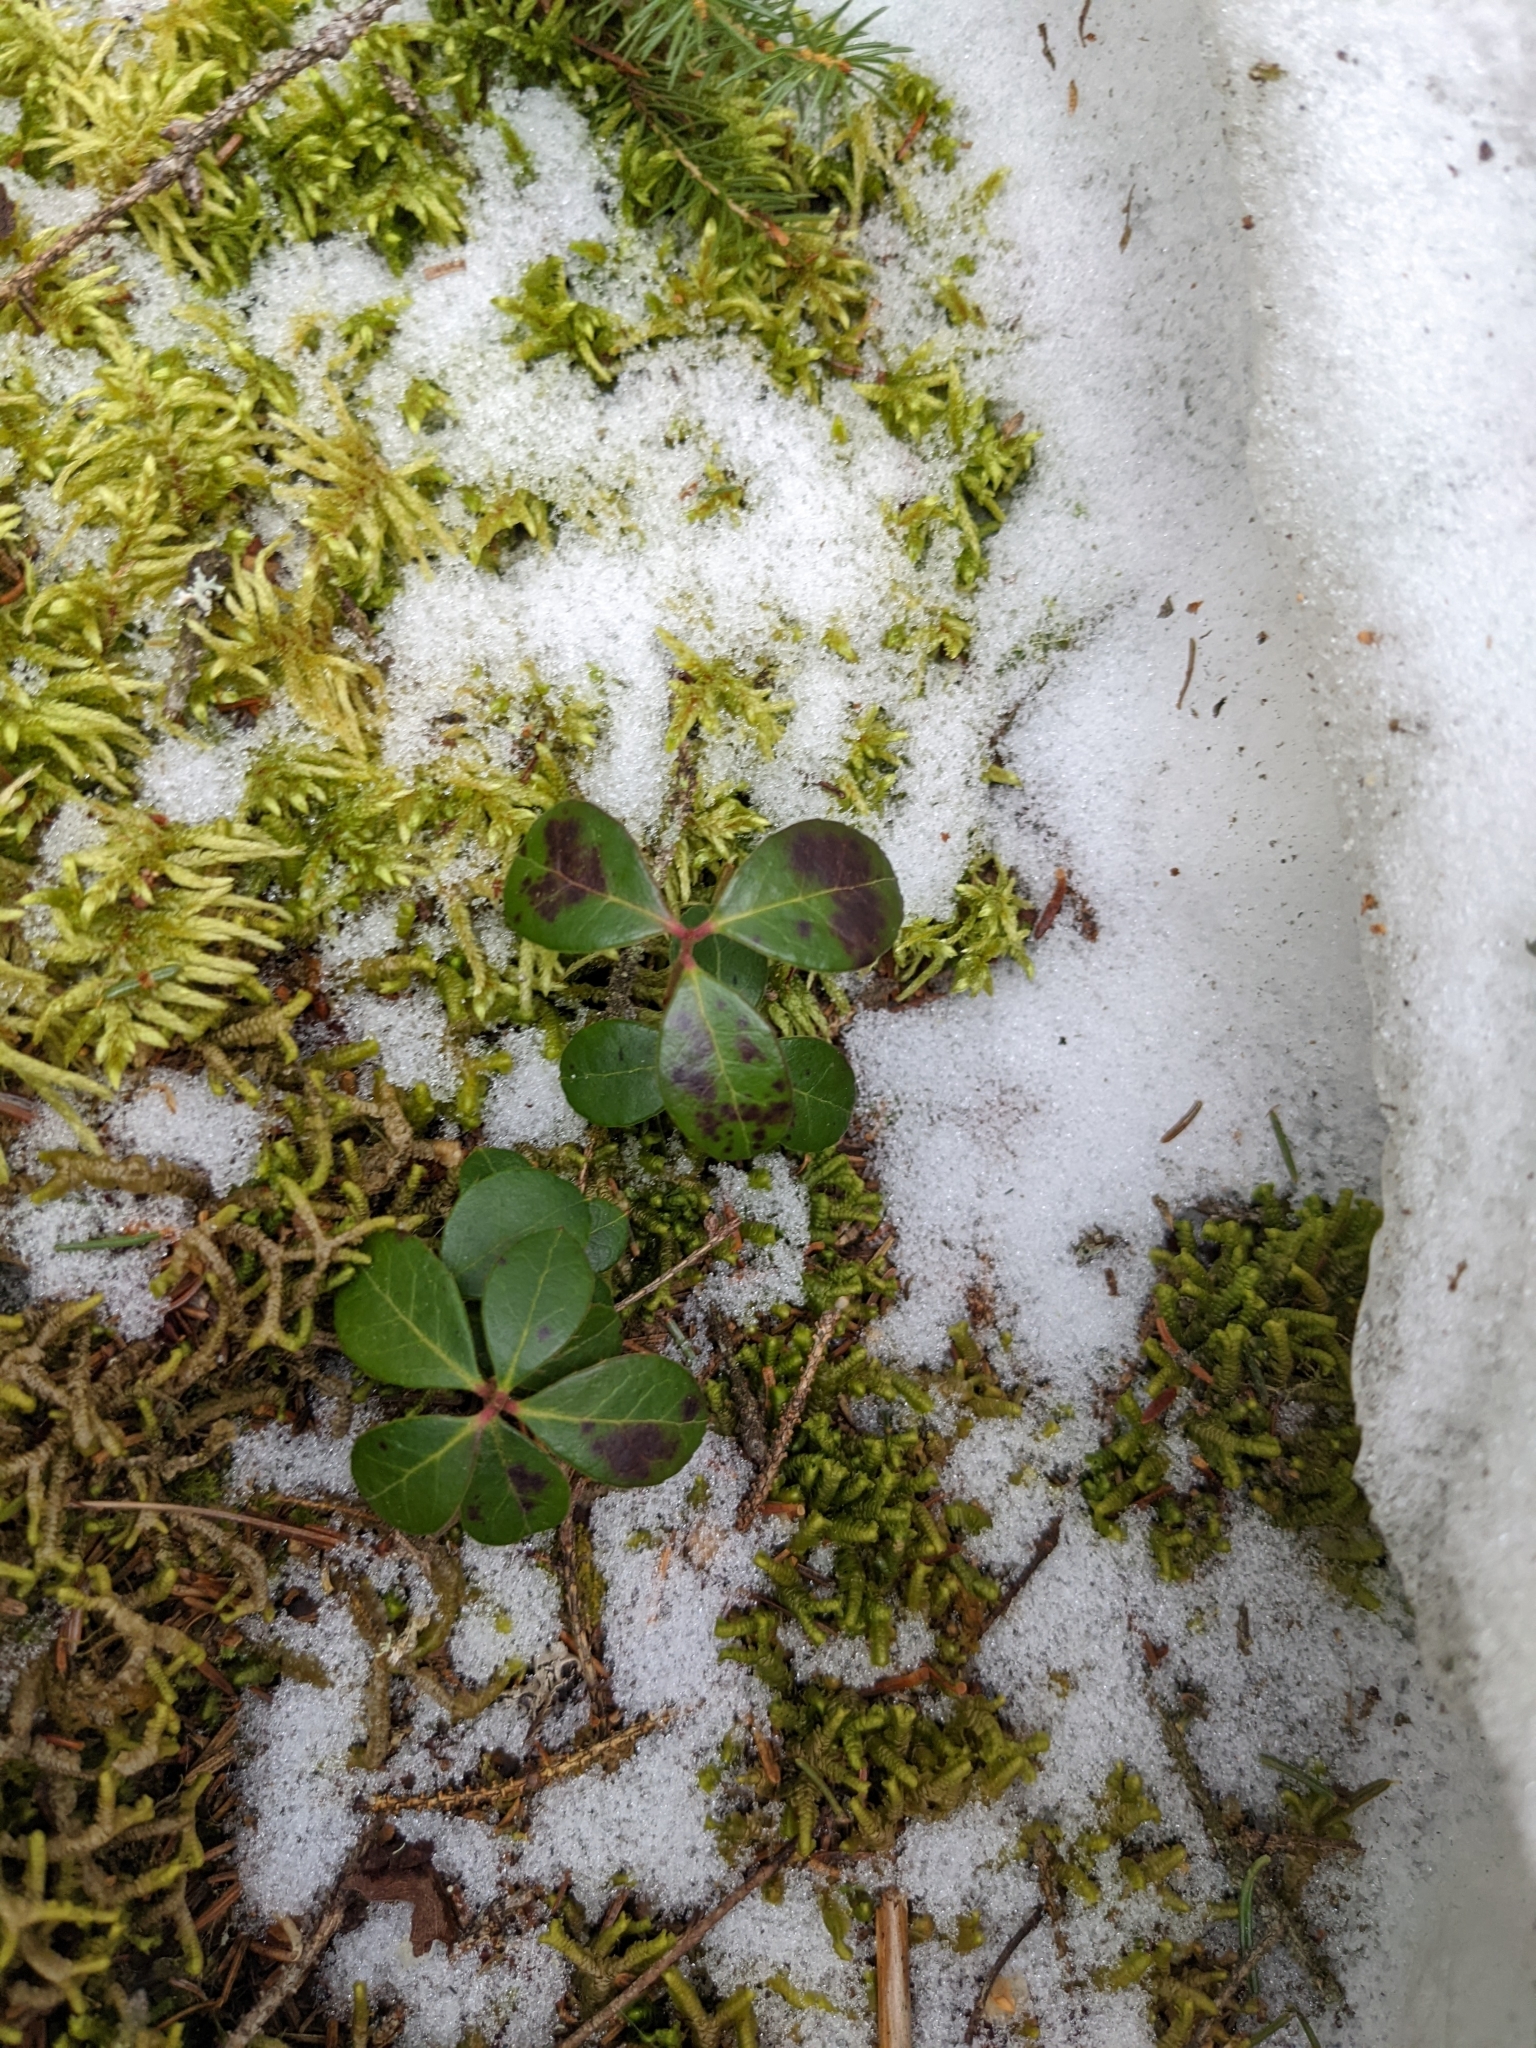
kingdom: Plantae
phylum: Tracheophyta
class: Magnoliopsida
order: Ericales
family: Ericaceae
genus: Gaultheria
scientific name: Gaultheria procumbens
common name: Checkerberry
